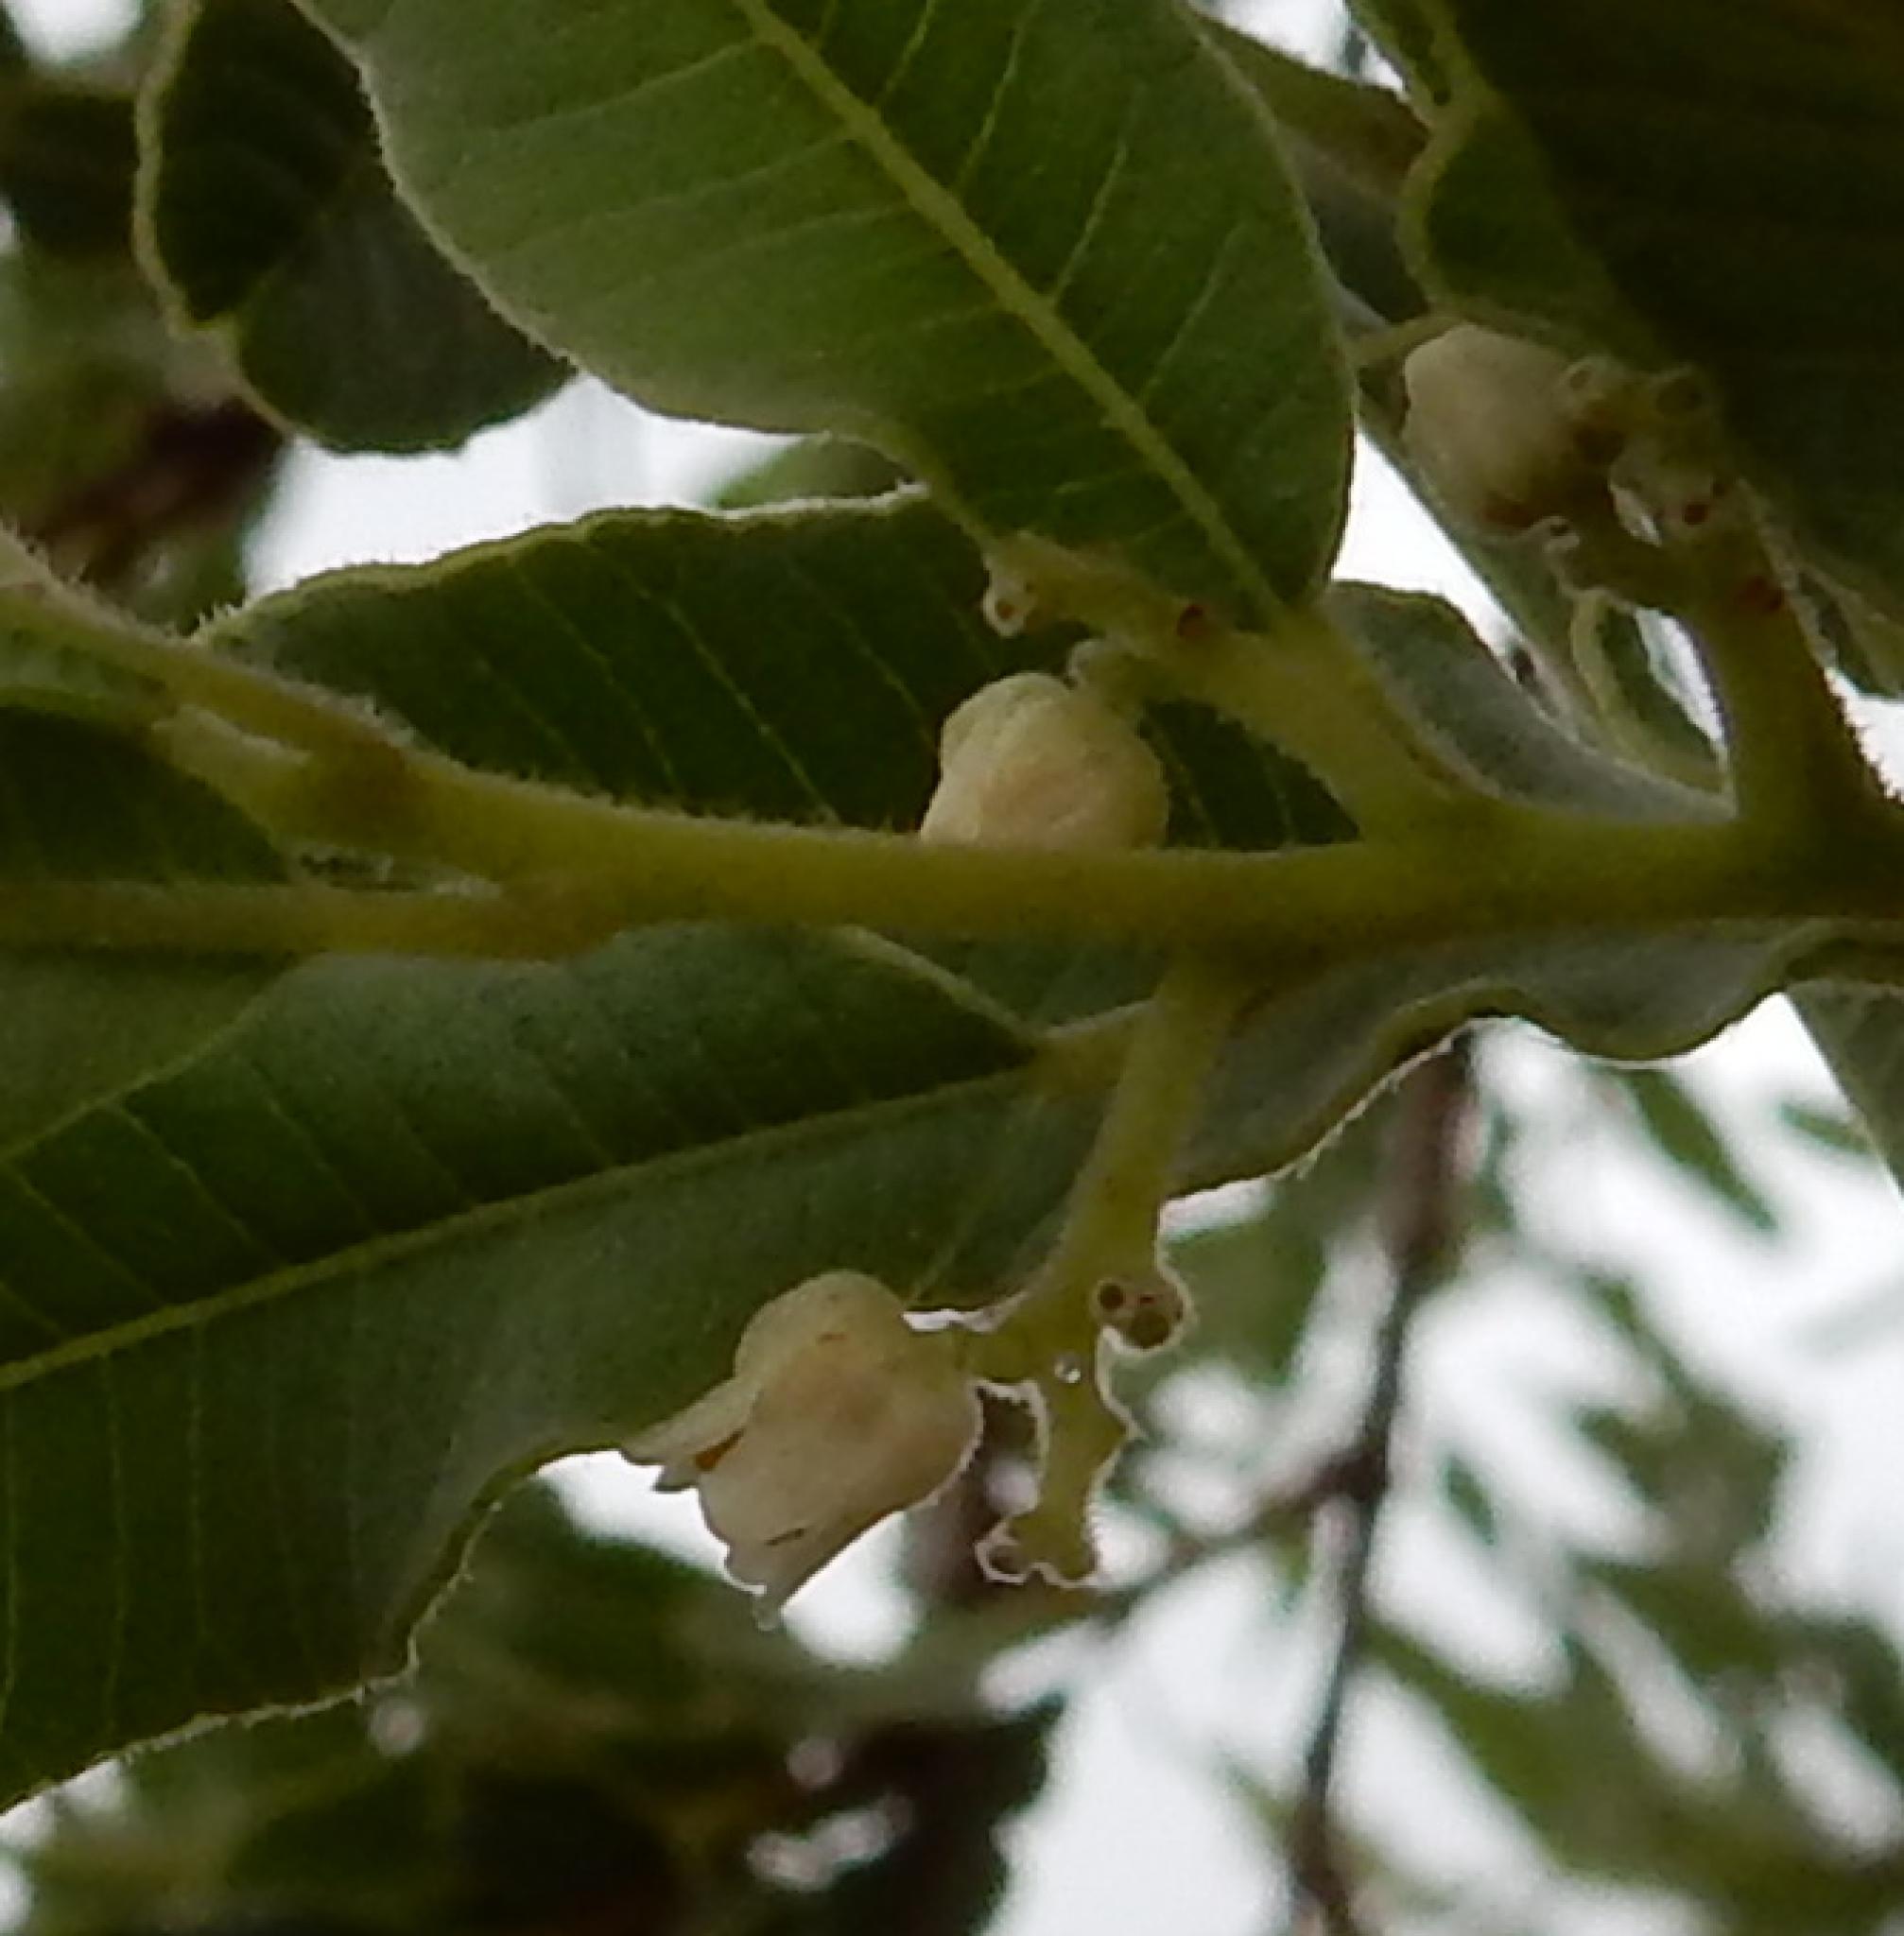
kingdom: Plantae
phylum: Tracheophyta
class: Magnoliopsida
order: Sapindales
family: Anacardiaceae
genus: Ozoroa
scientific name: Ozoroa paniculosa
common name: Bushveld ozoroa
